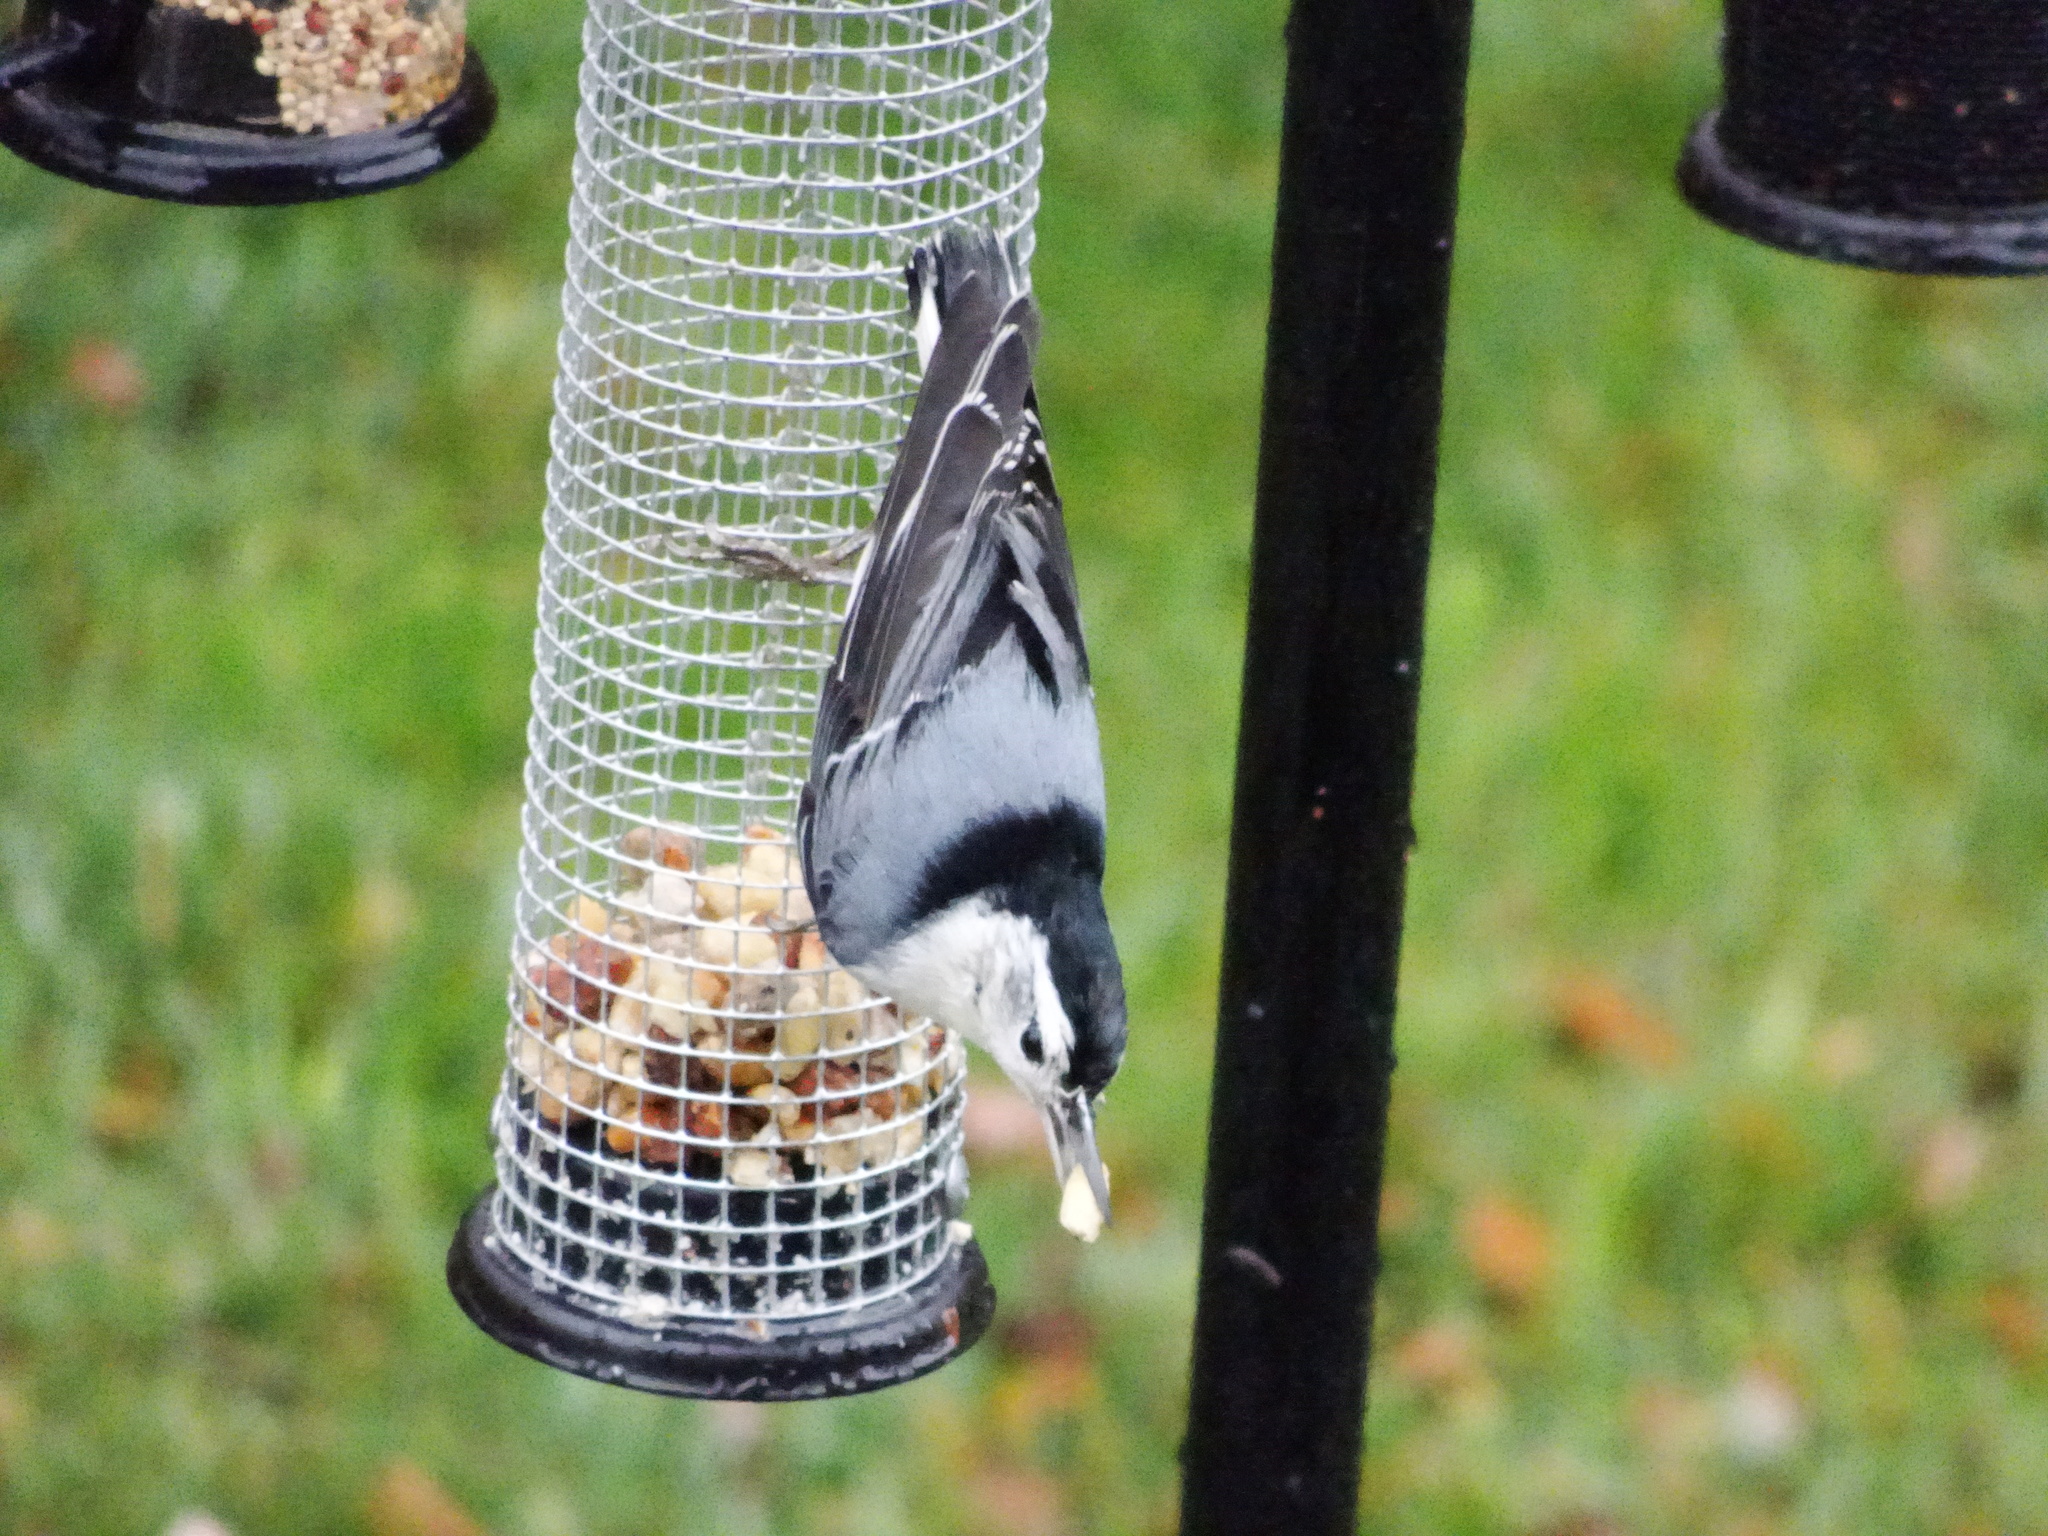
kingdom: Animalia
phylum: Chordata
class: Aves
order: Passeriformes
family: Sittidae
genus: Sitta
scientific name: Sitta carolinensis
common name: White-breasted nuthatch
